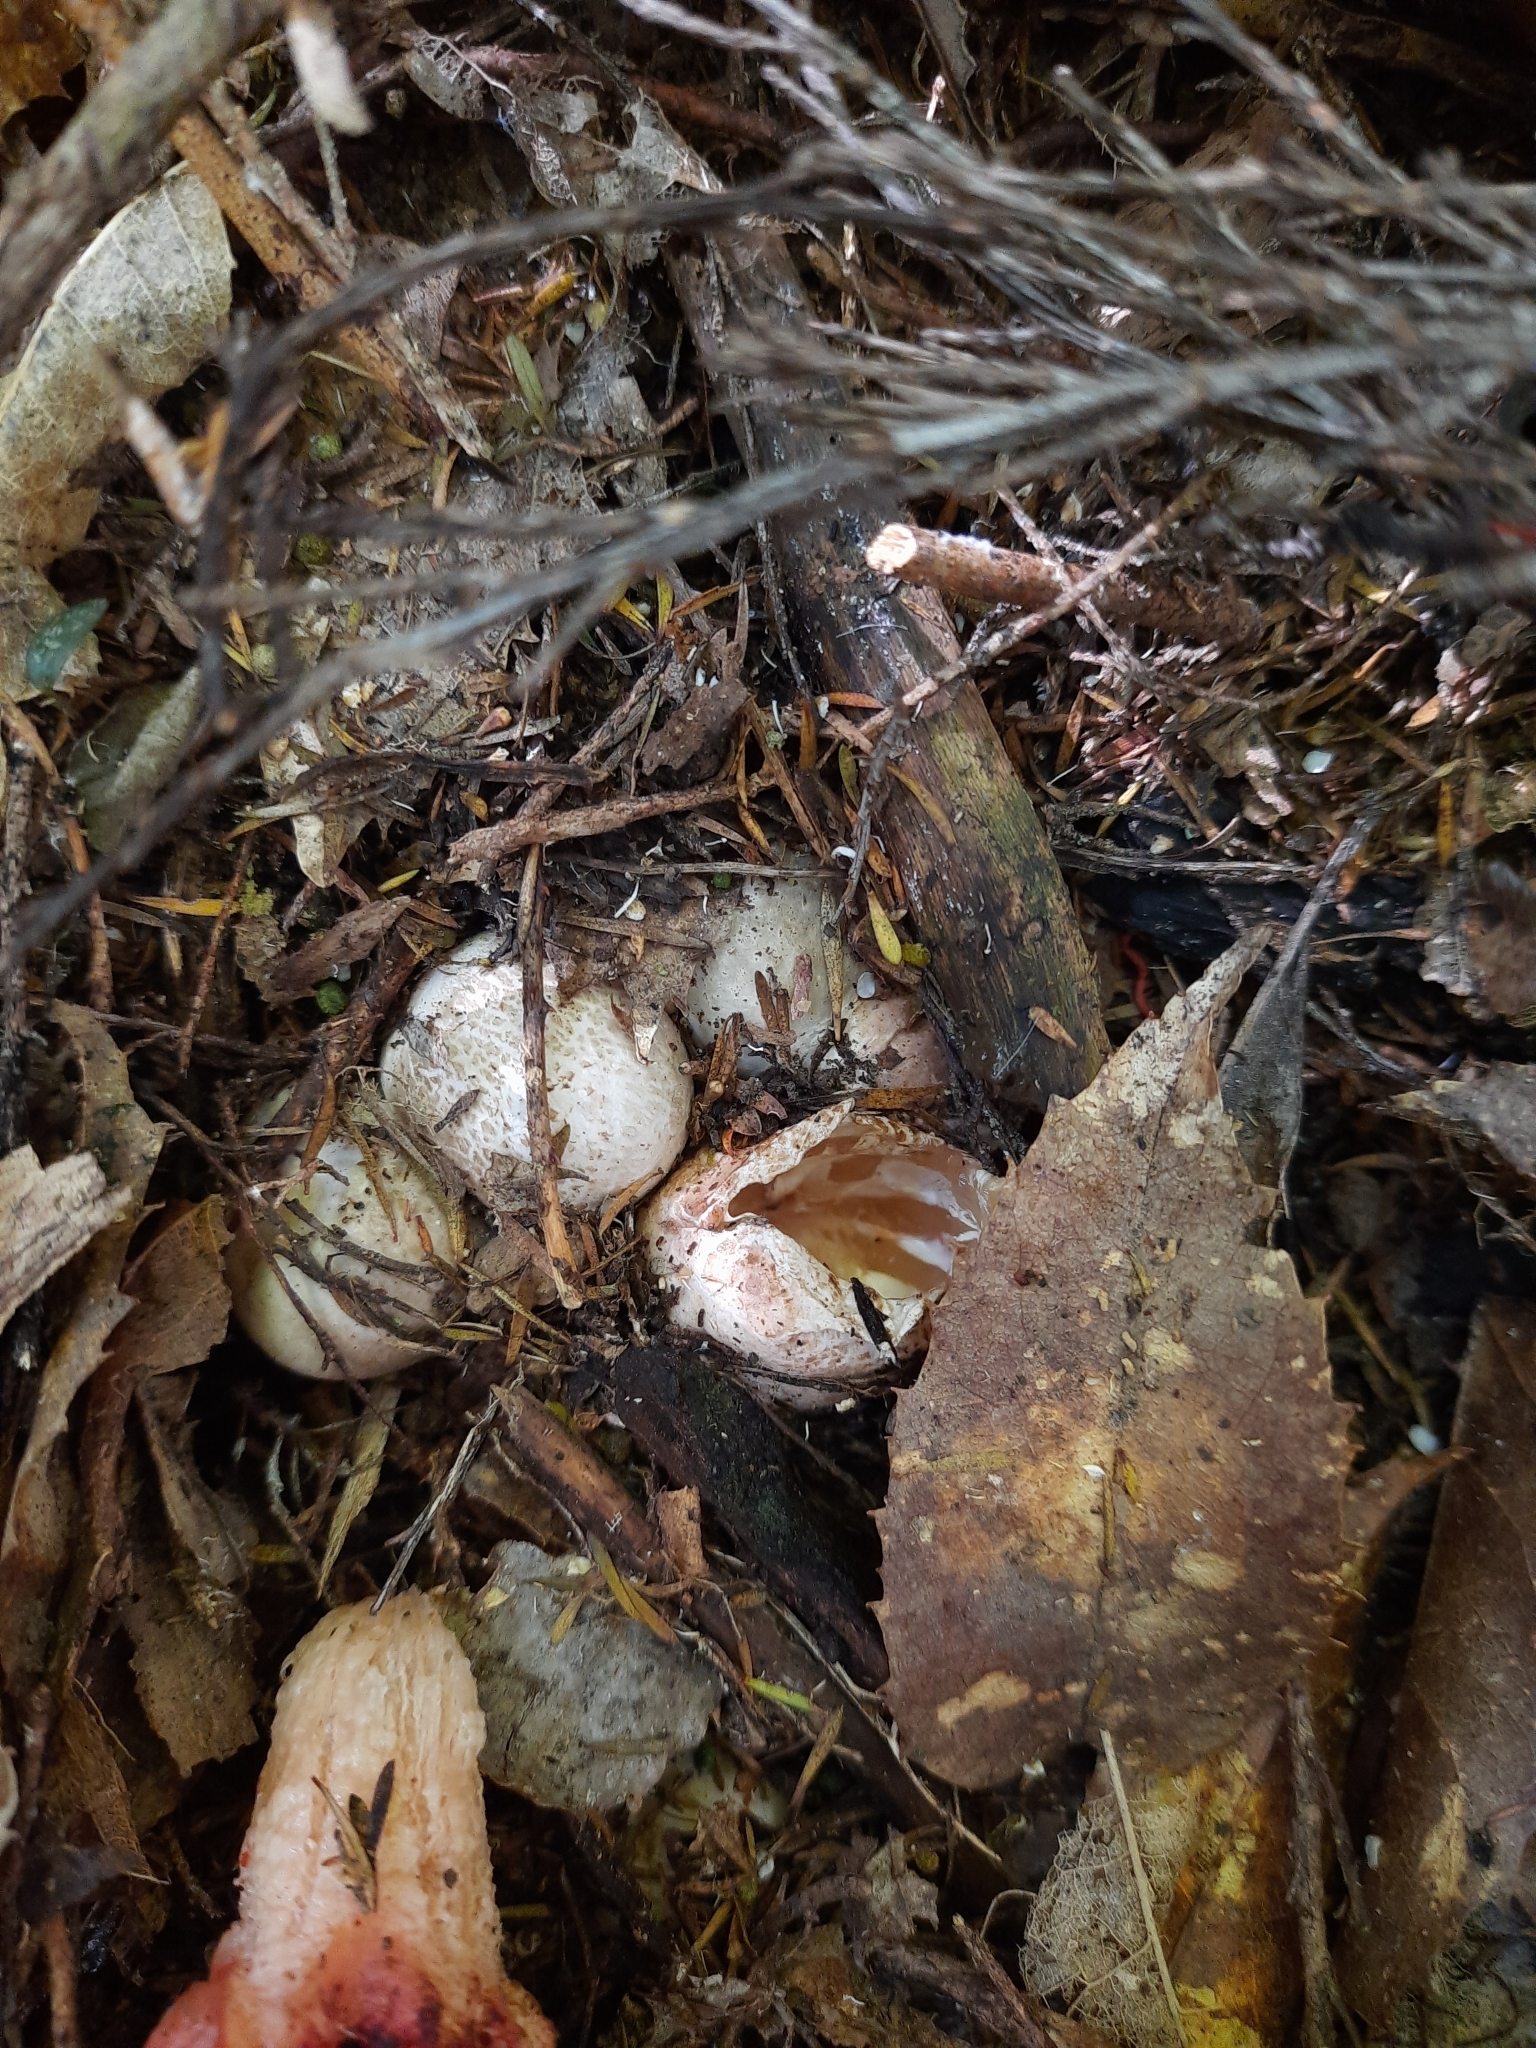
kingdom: Fungi
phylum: Basidiomycota
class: Agaricomycetes
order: Phallales
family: Phallaceae
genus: Aseroe
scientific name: Aseroe rubra
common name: Starfish fungus
